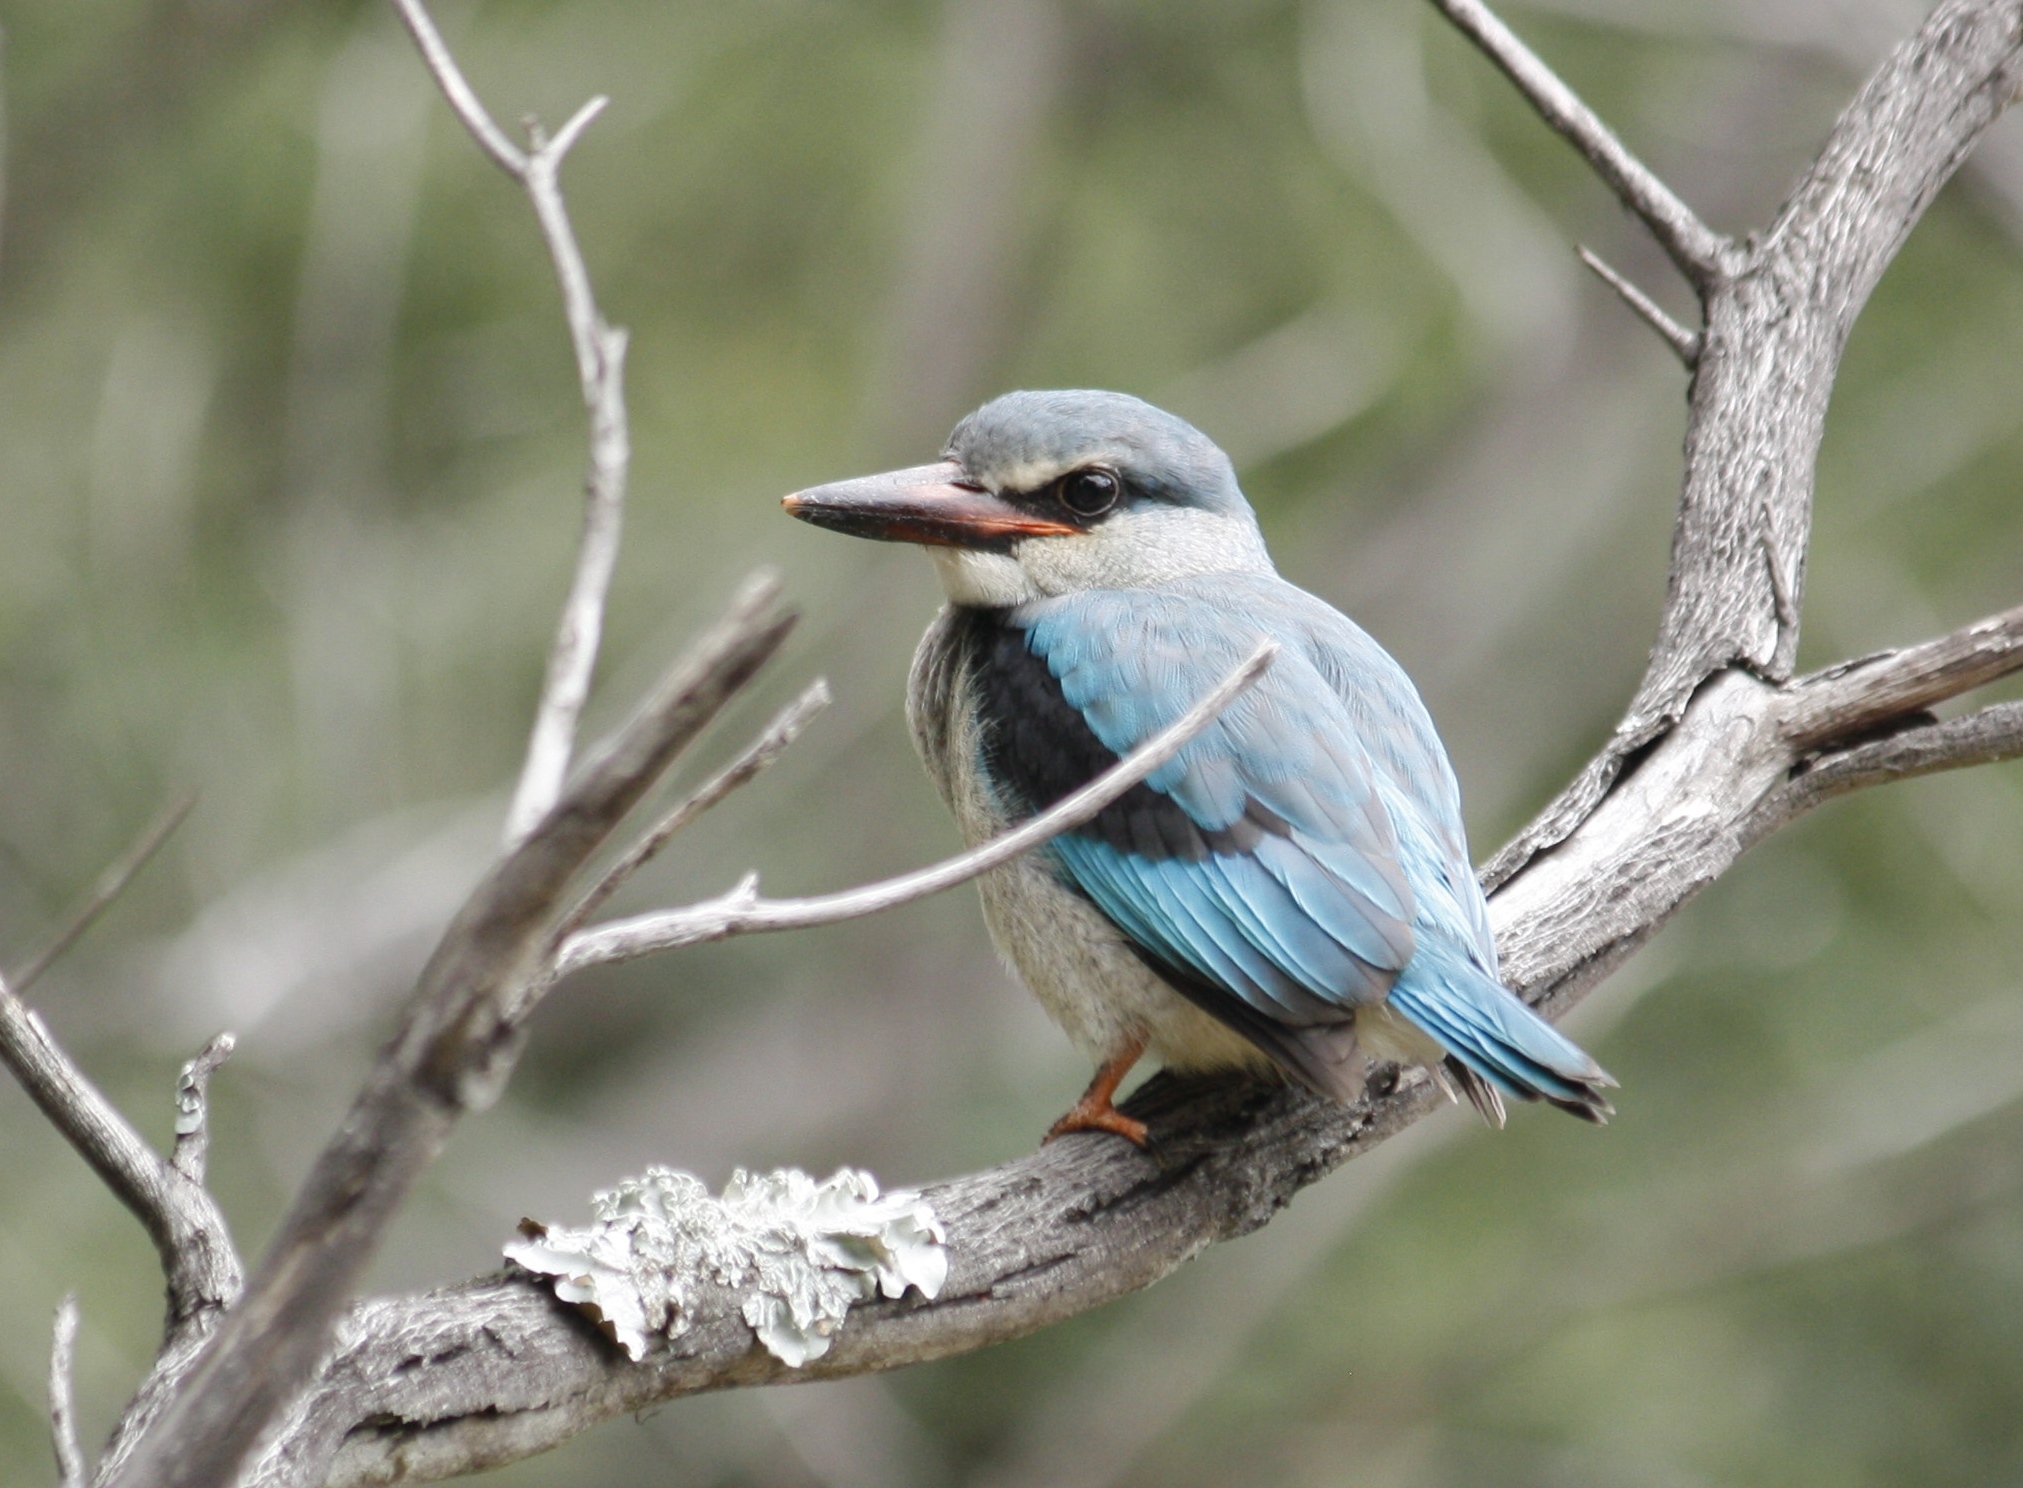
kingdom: Animalia
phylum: Chordata
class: Aves
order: Coraciiformes
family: Alcedinidae
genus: Halcyon
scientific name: Halcyon senegalensis
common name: Woodland kingfisher
